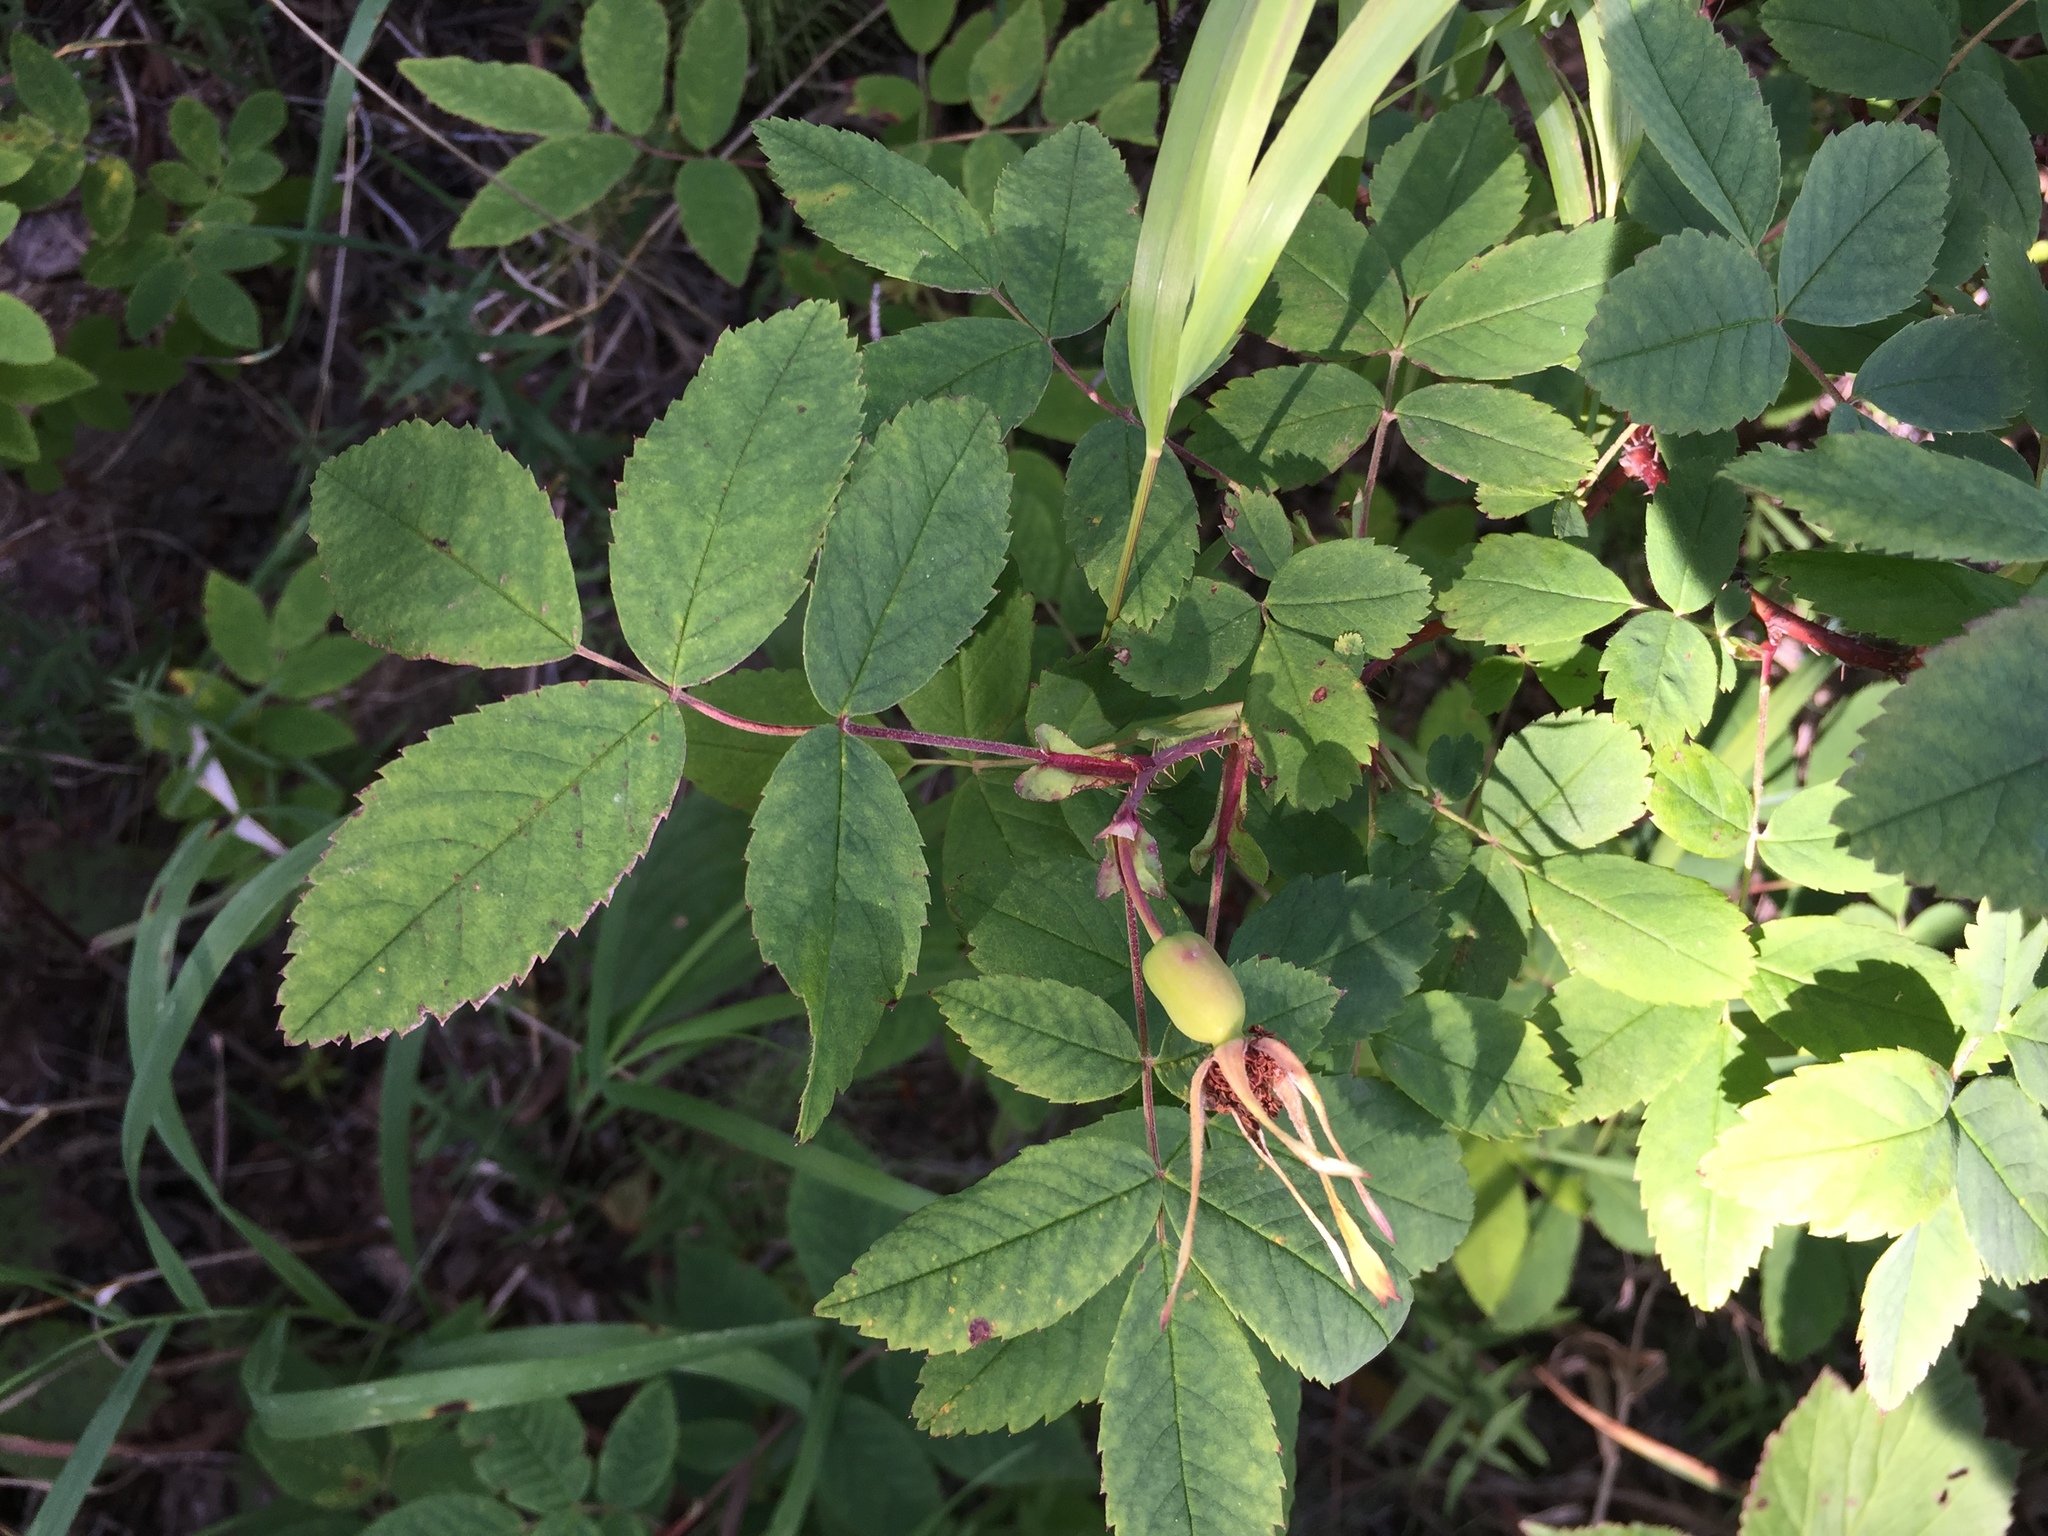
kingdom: Plantae
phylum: Tracheophyta
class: Magnoliopsida
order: Rosales
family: Rosaceae
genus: Rosa
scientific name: Rosa acicularis
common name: Prickly rose
